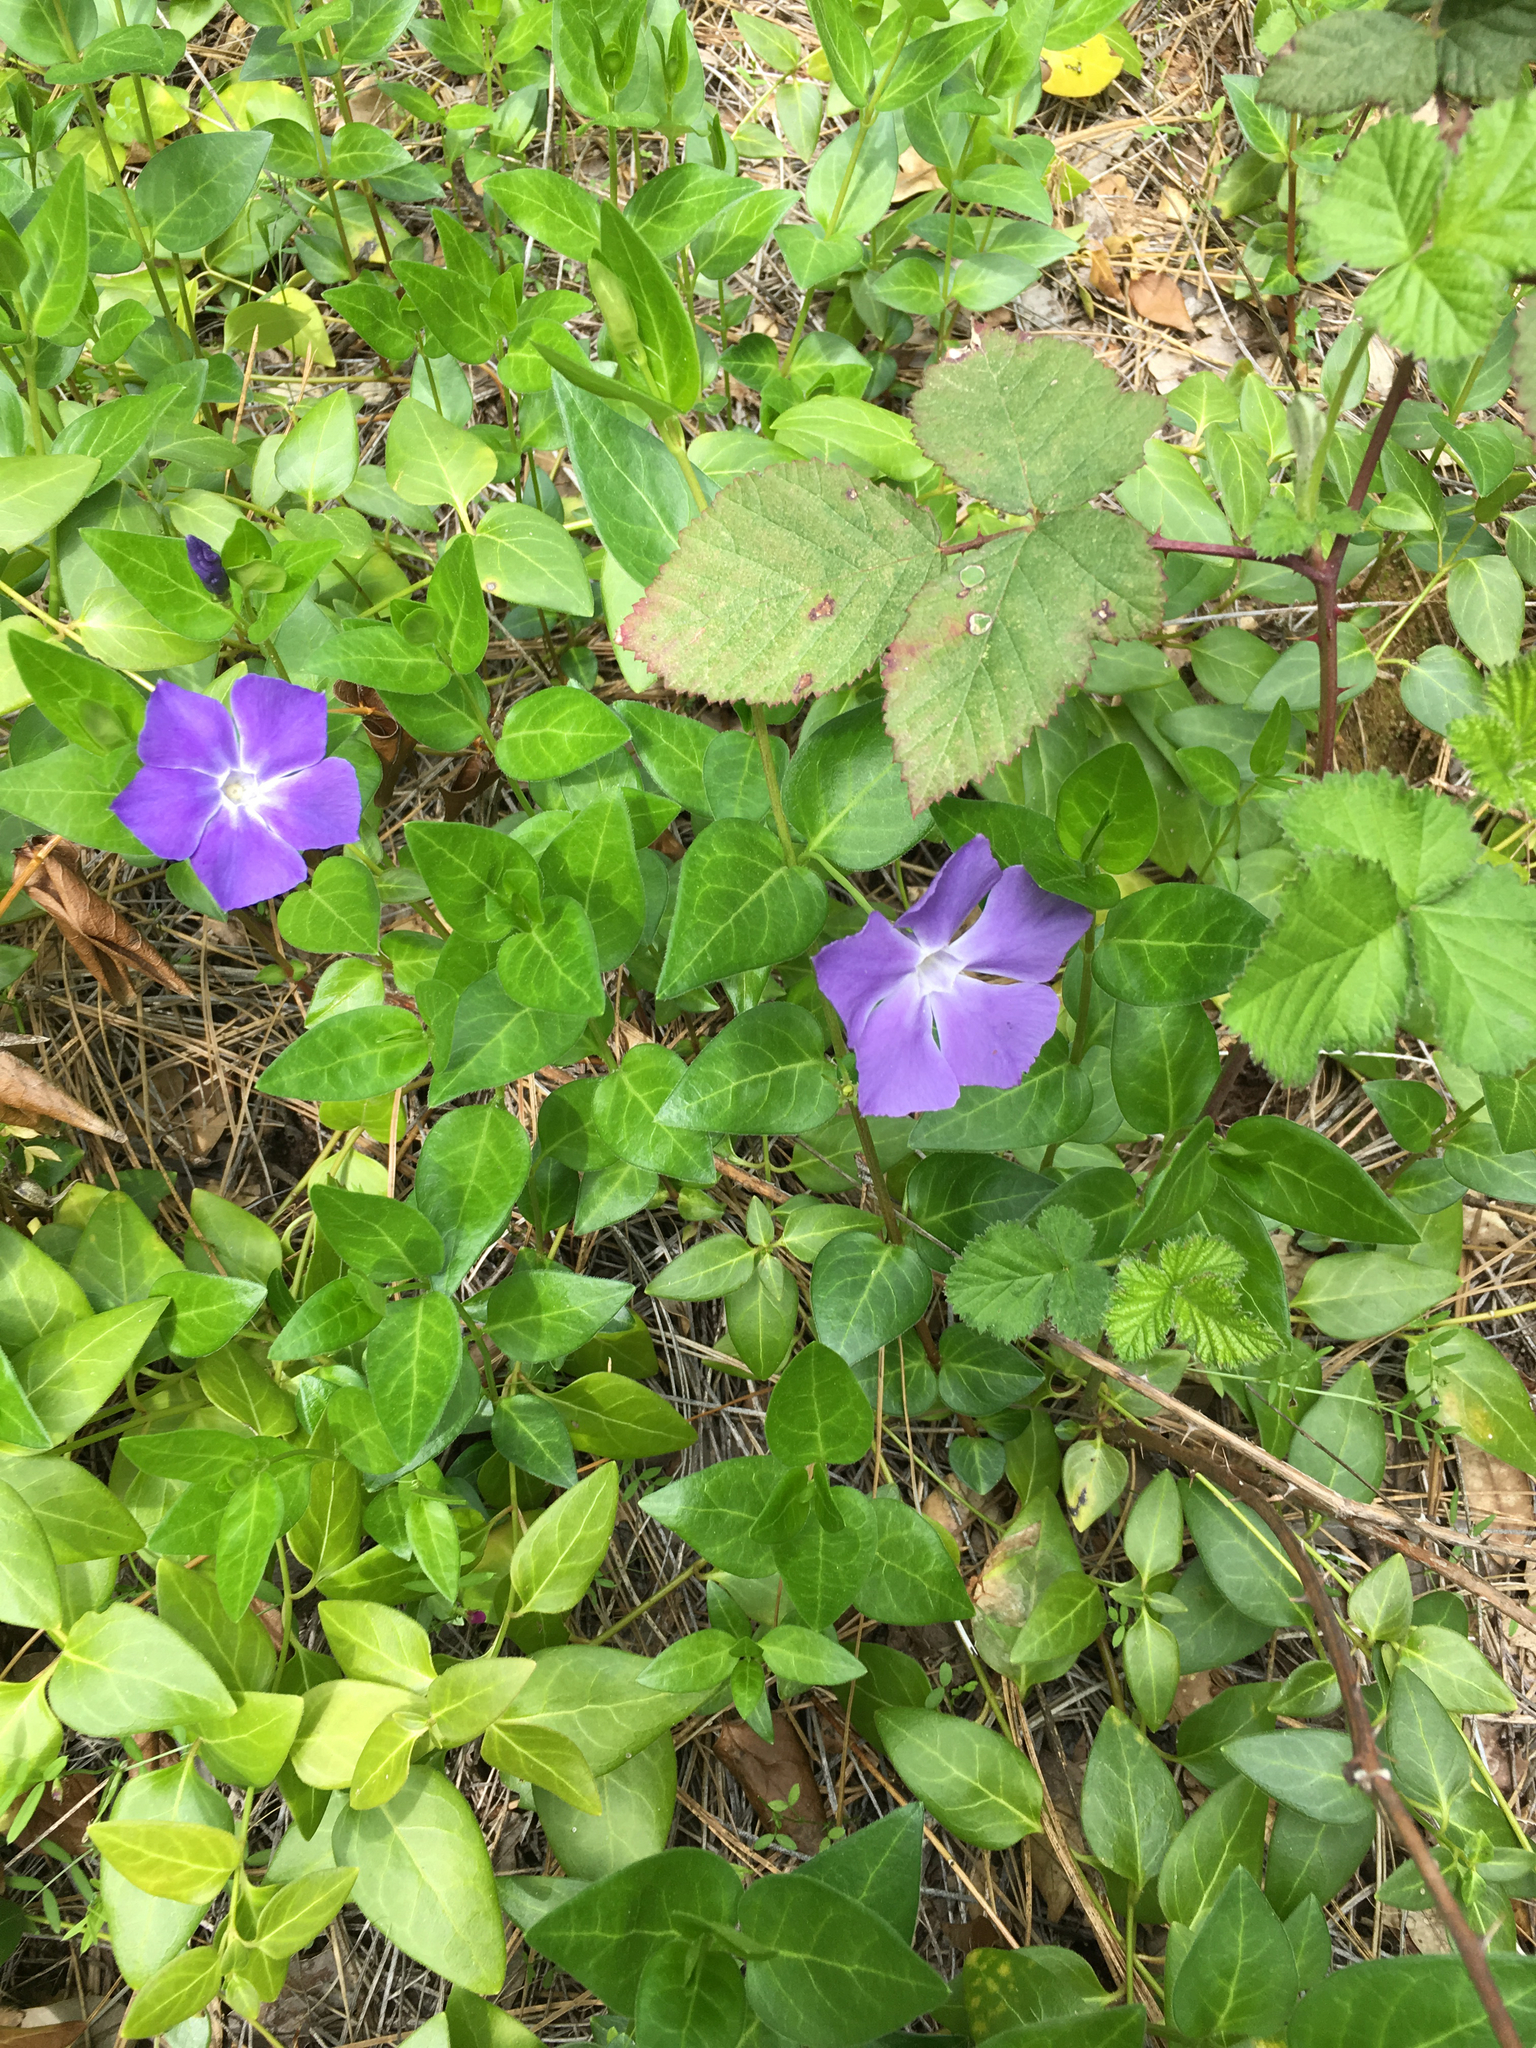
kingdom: Plantae
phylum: Tracheophyta
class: Magnoliopsida
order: Gentianales
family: Apocynaceae
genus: Vinca
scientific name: Vinca major
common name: Greater periwinkle
